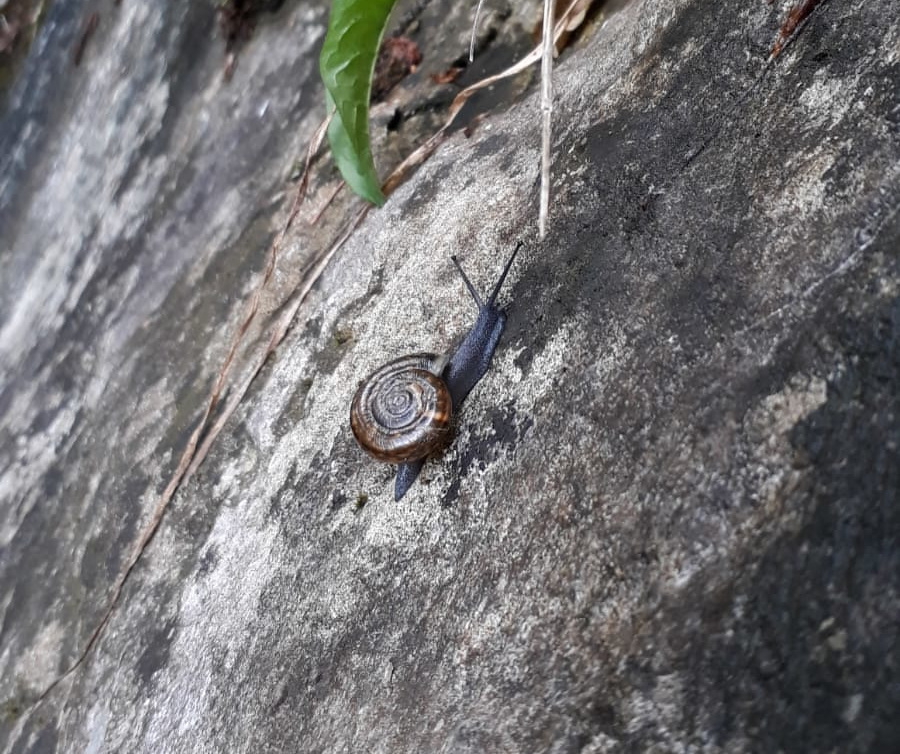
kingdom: Animalia
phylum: Mollusca
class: Gastropoda
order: Stylommatophora
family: Helicidae
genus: Campylaea
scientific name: Campylaea illyrica
